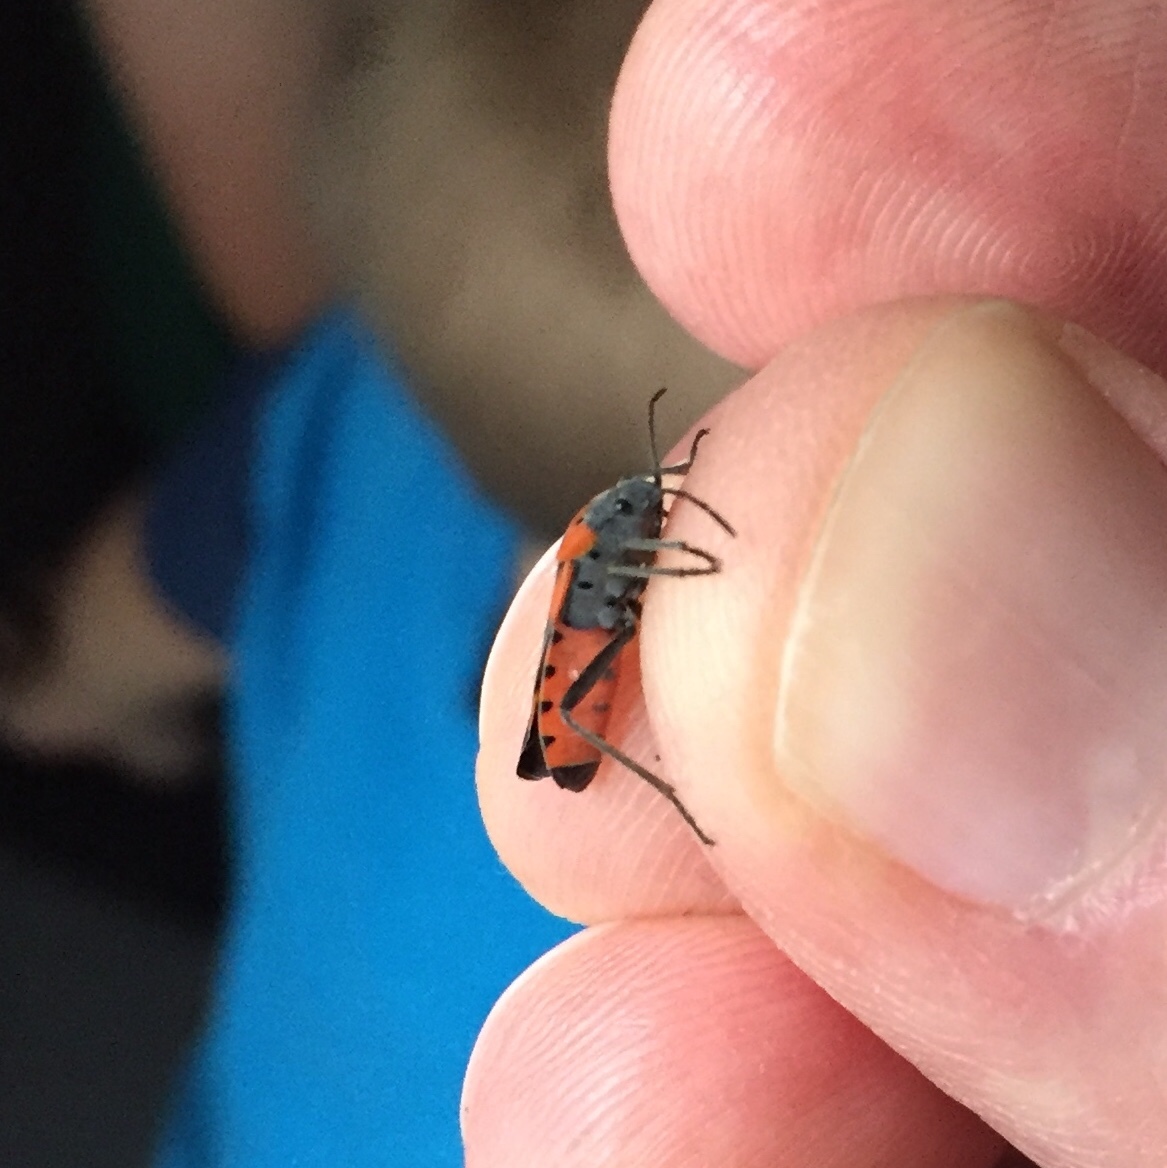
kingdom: Animalia
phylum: Arthropoda
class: Insecta
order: Hemiptera
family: Lygaeidae
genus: Lygaeus
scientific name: Lygaeus kalmii
